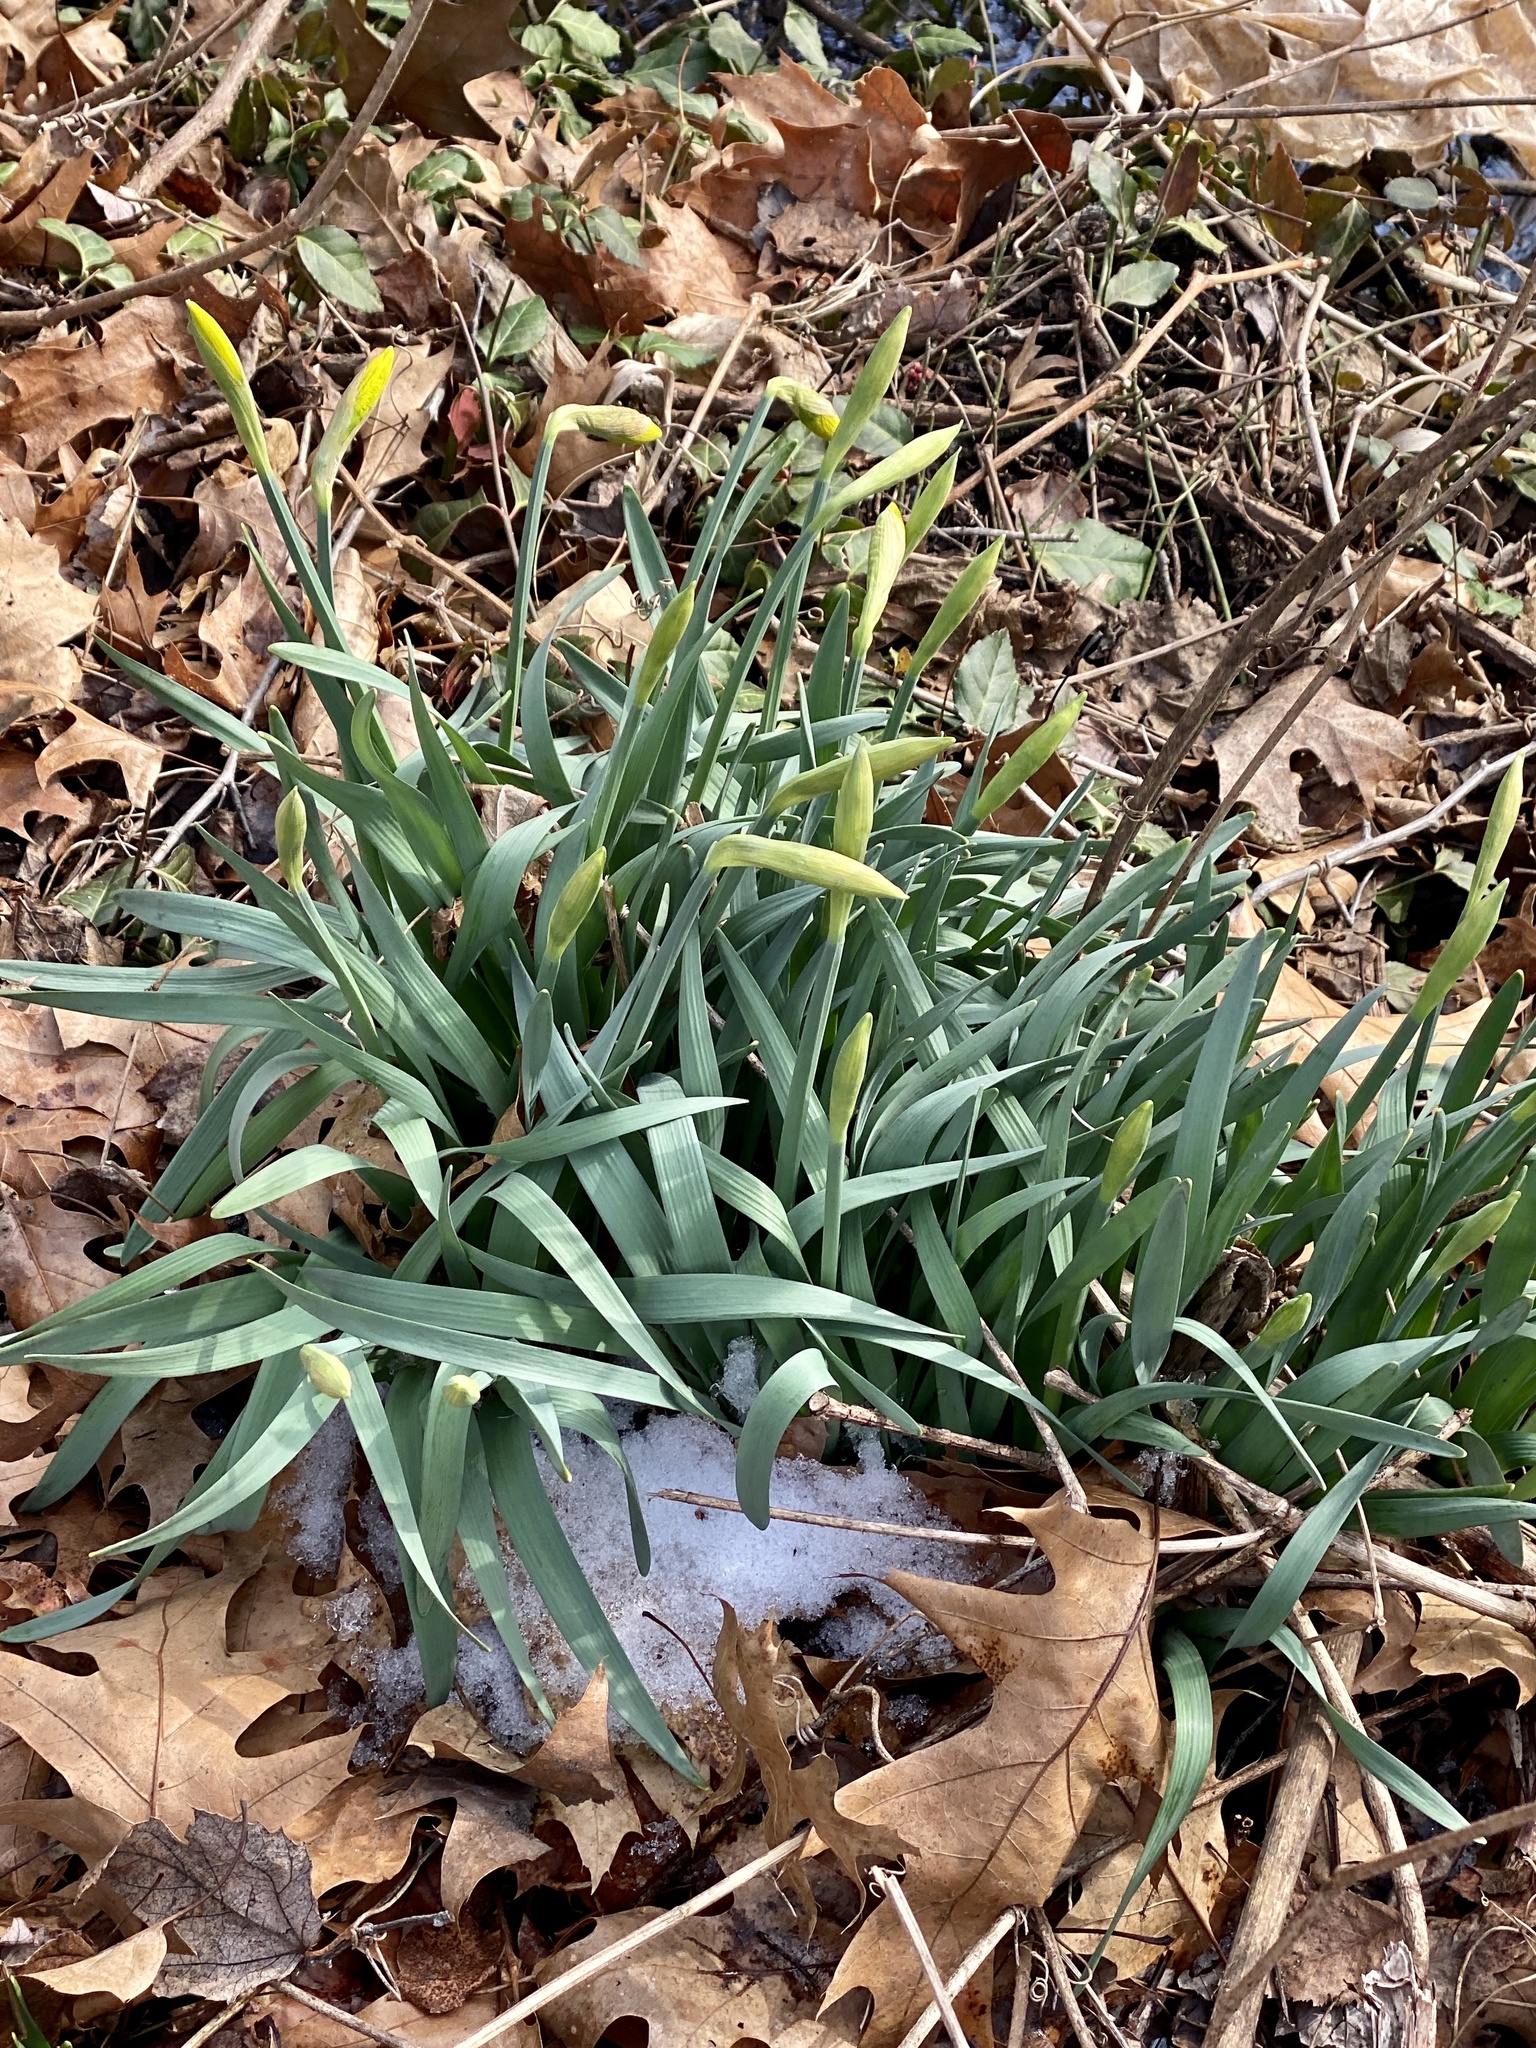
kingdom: Plantae
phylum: Tracheophyta
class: Liliopsida
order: Asparagales
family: Amaryllidaceae
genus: Narcissus
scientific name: Narcissus
